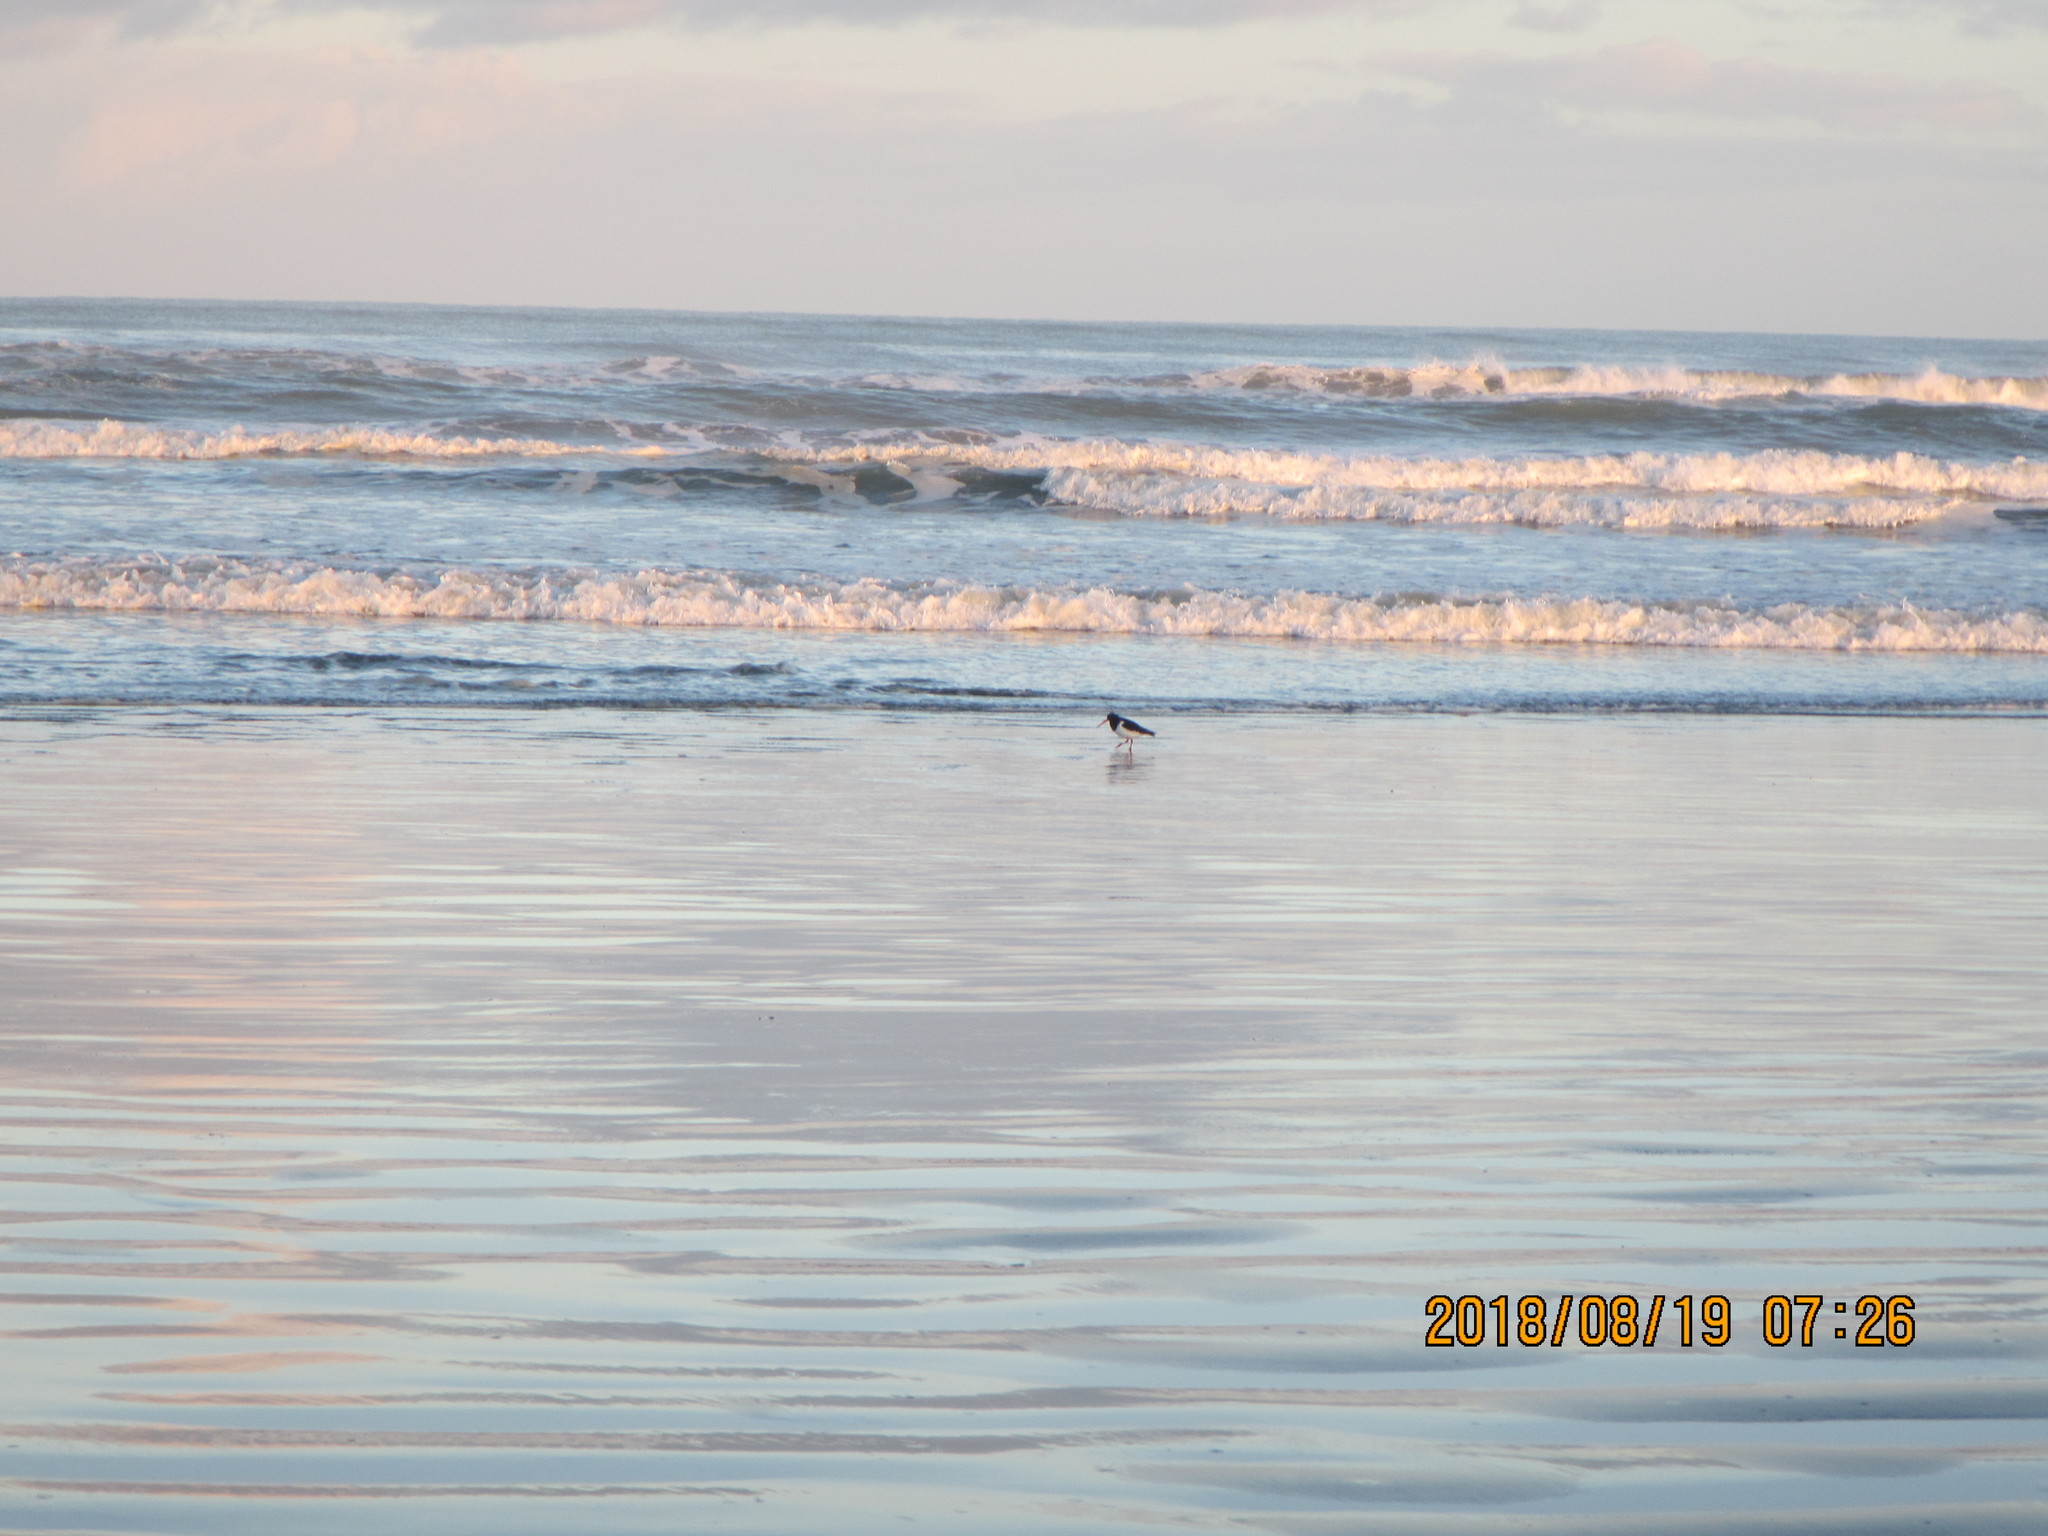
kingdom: Animalia
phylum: Chordata
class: Aves
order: Charadriiformes
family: Haematopodidae
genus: Haematopus
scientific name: Haematopus finschi
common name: South island oystercatcher
